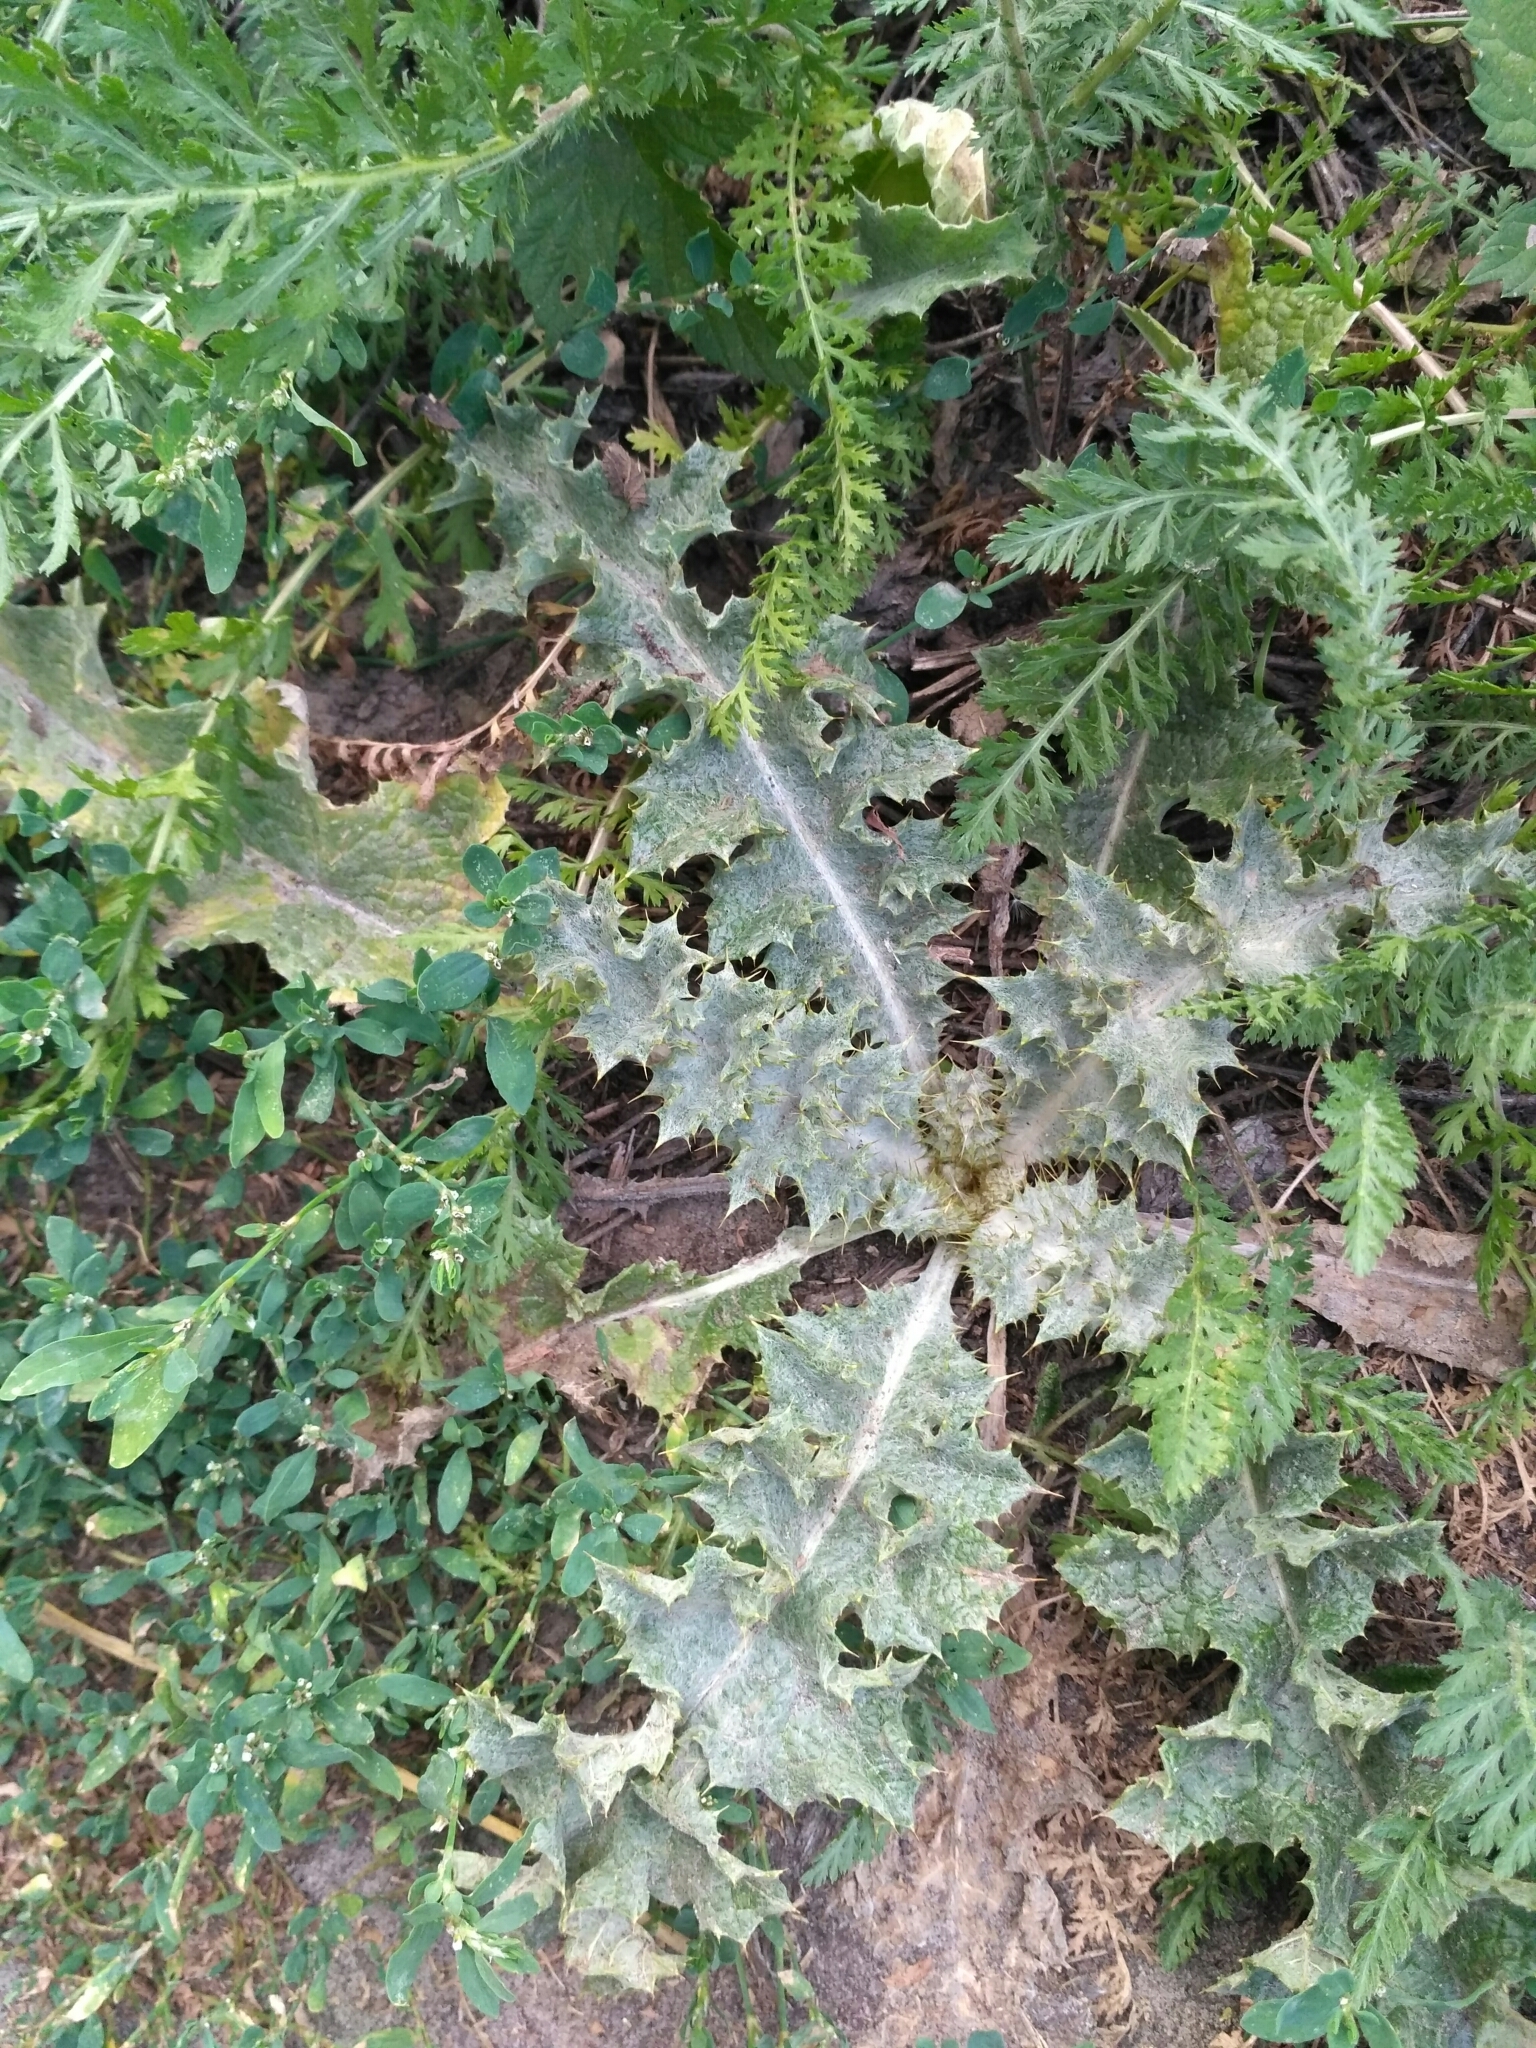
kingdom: Plantae
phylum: Tracheophyta
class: Magnoliopsida
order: Asterales
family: Asteraceae
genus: Onopordum
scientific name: Onopordum acanthium
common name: Scotch thistle
